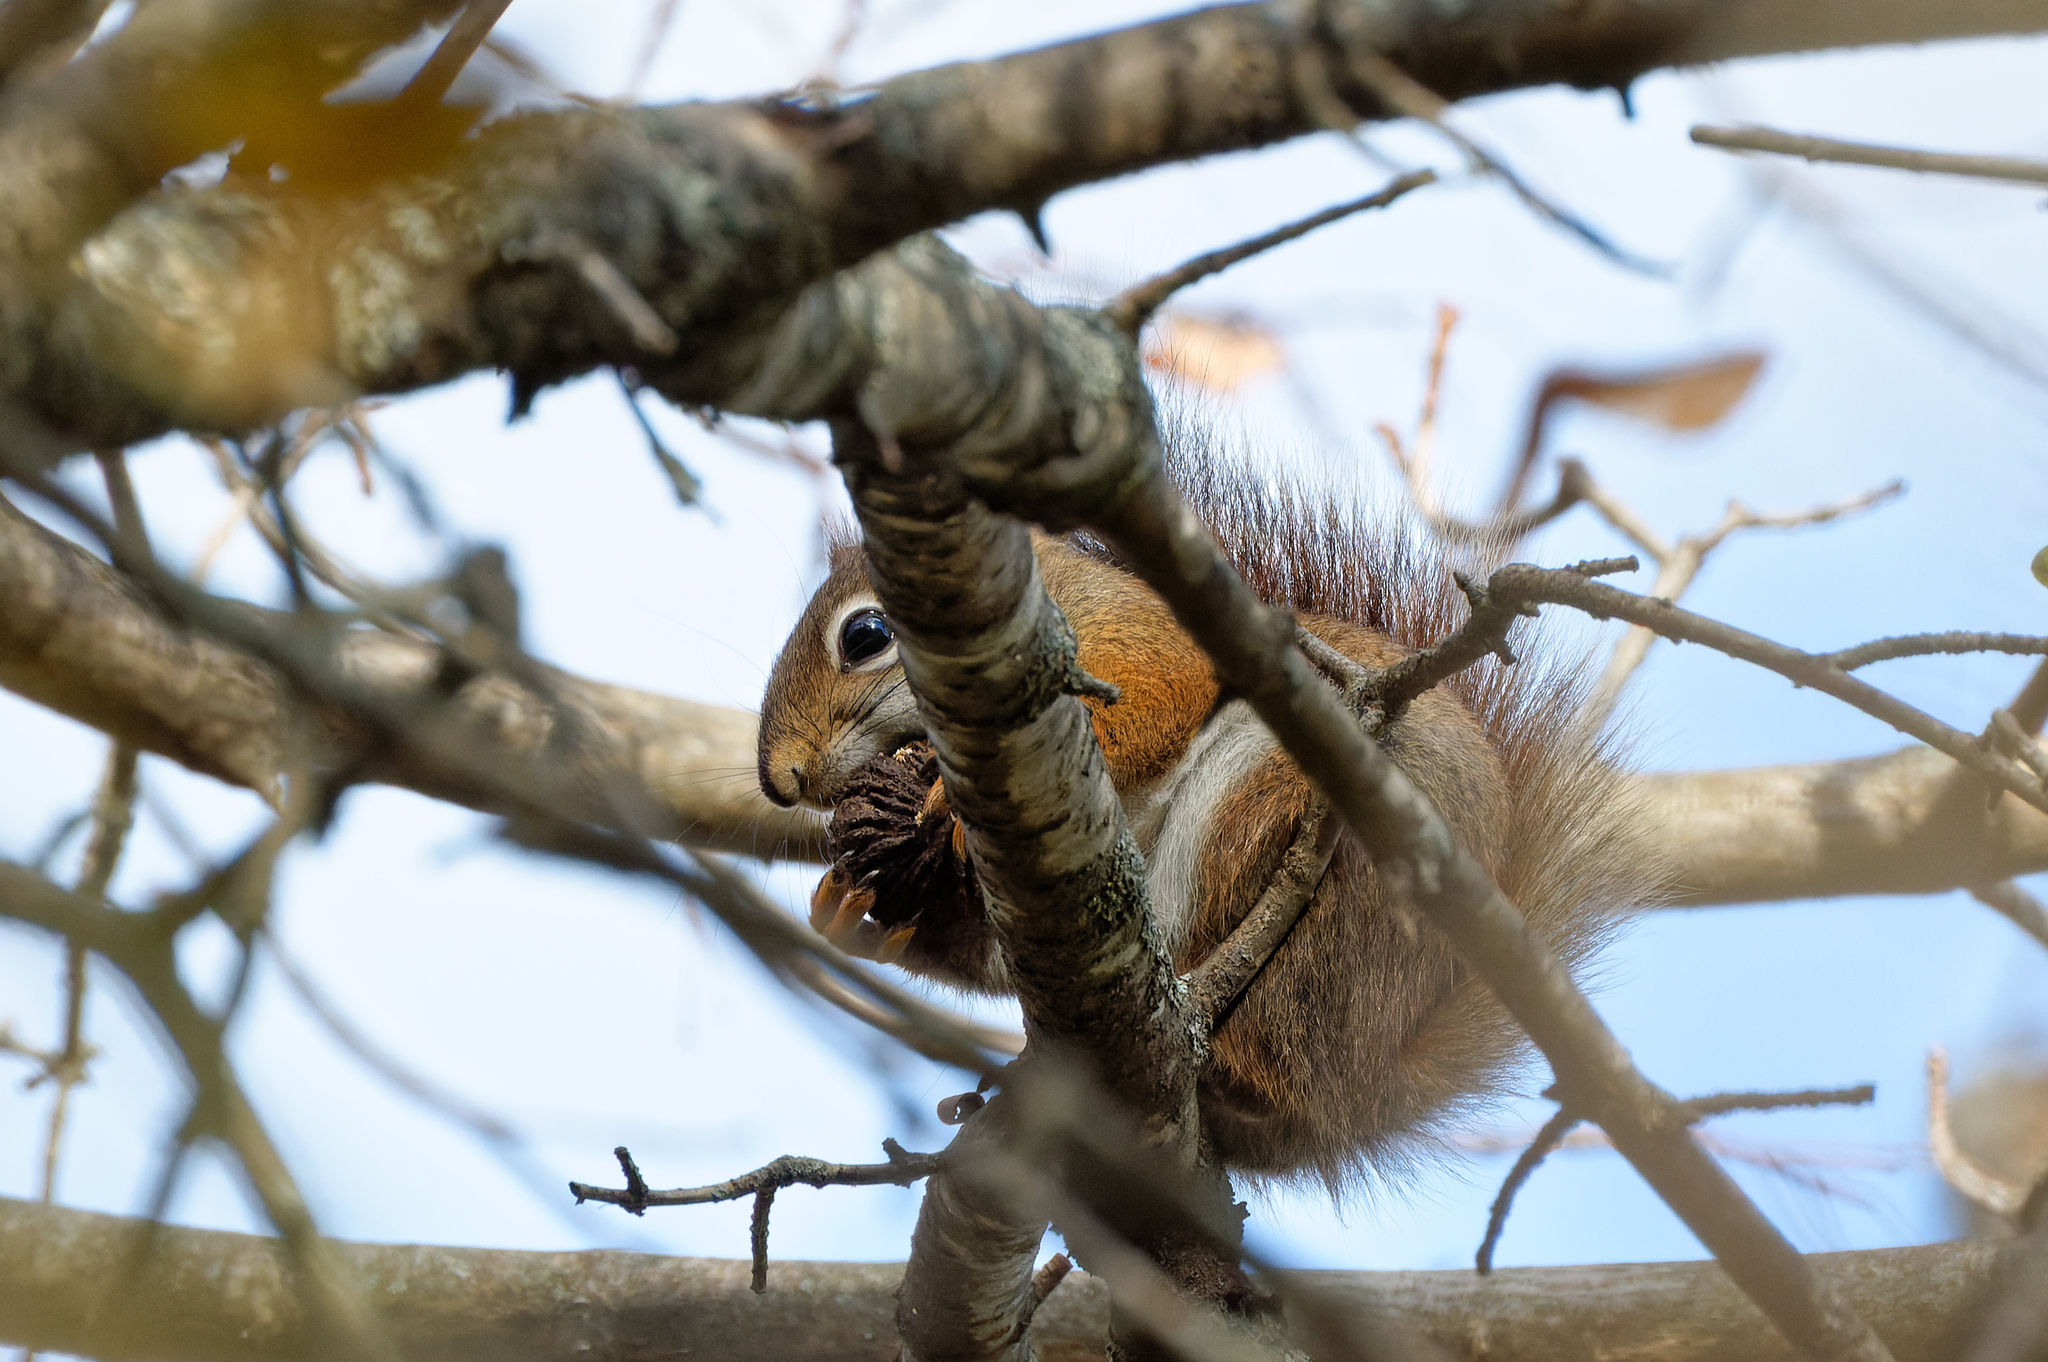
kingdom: Animalia
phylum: Chordata
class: Mammalia
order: Rodentia
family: Sciuridae
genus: Tamiasciurus
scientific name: Tamiasciurus hudsonicus
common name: Red squirrel
